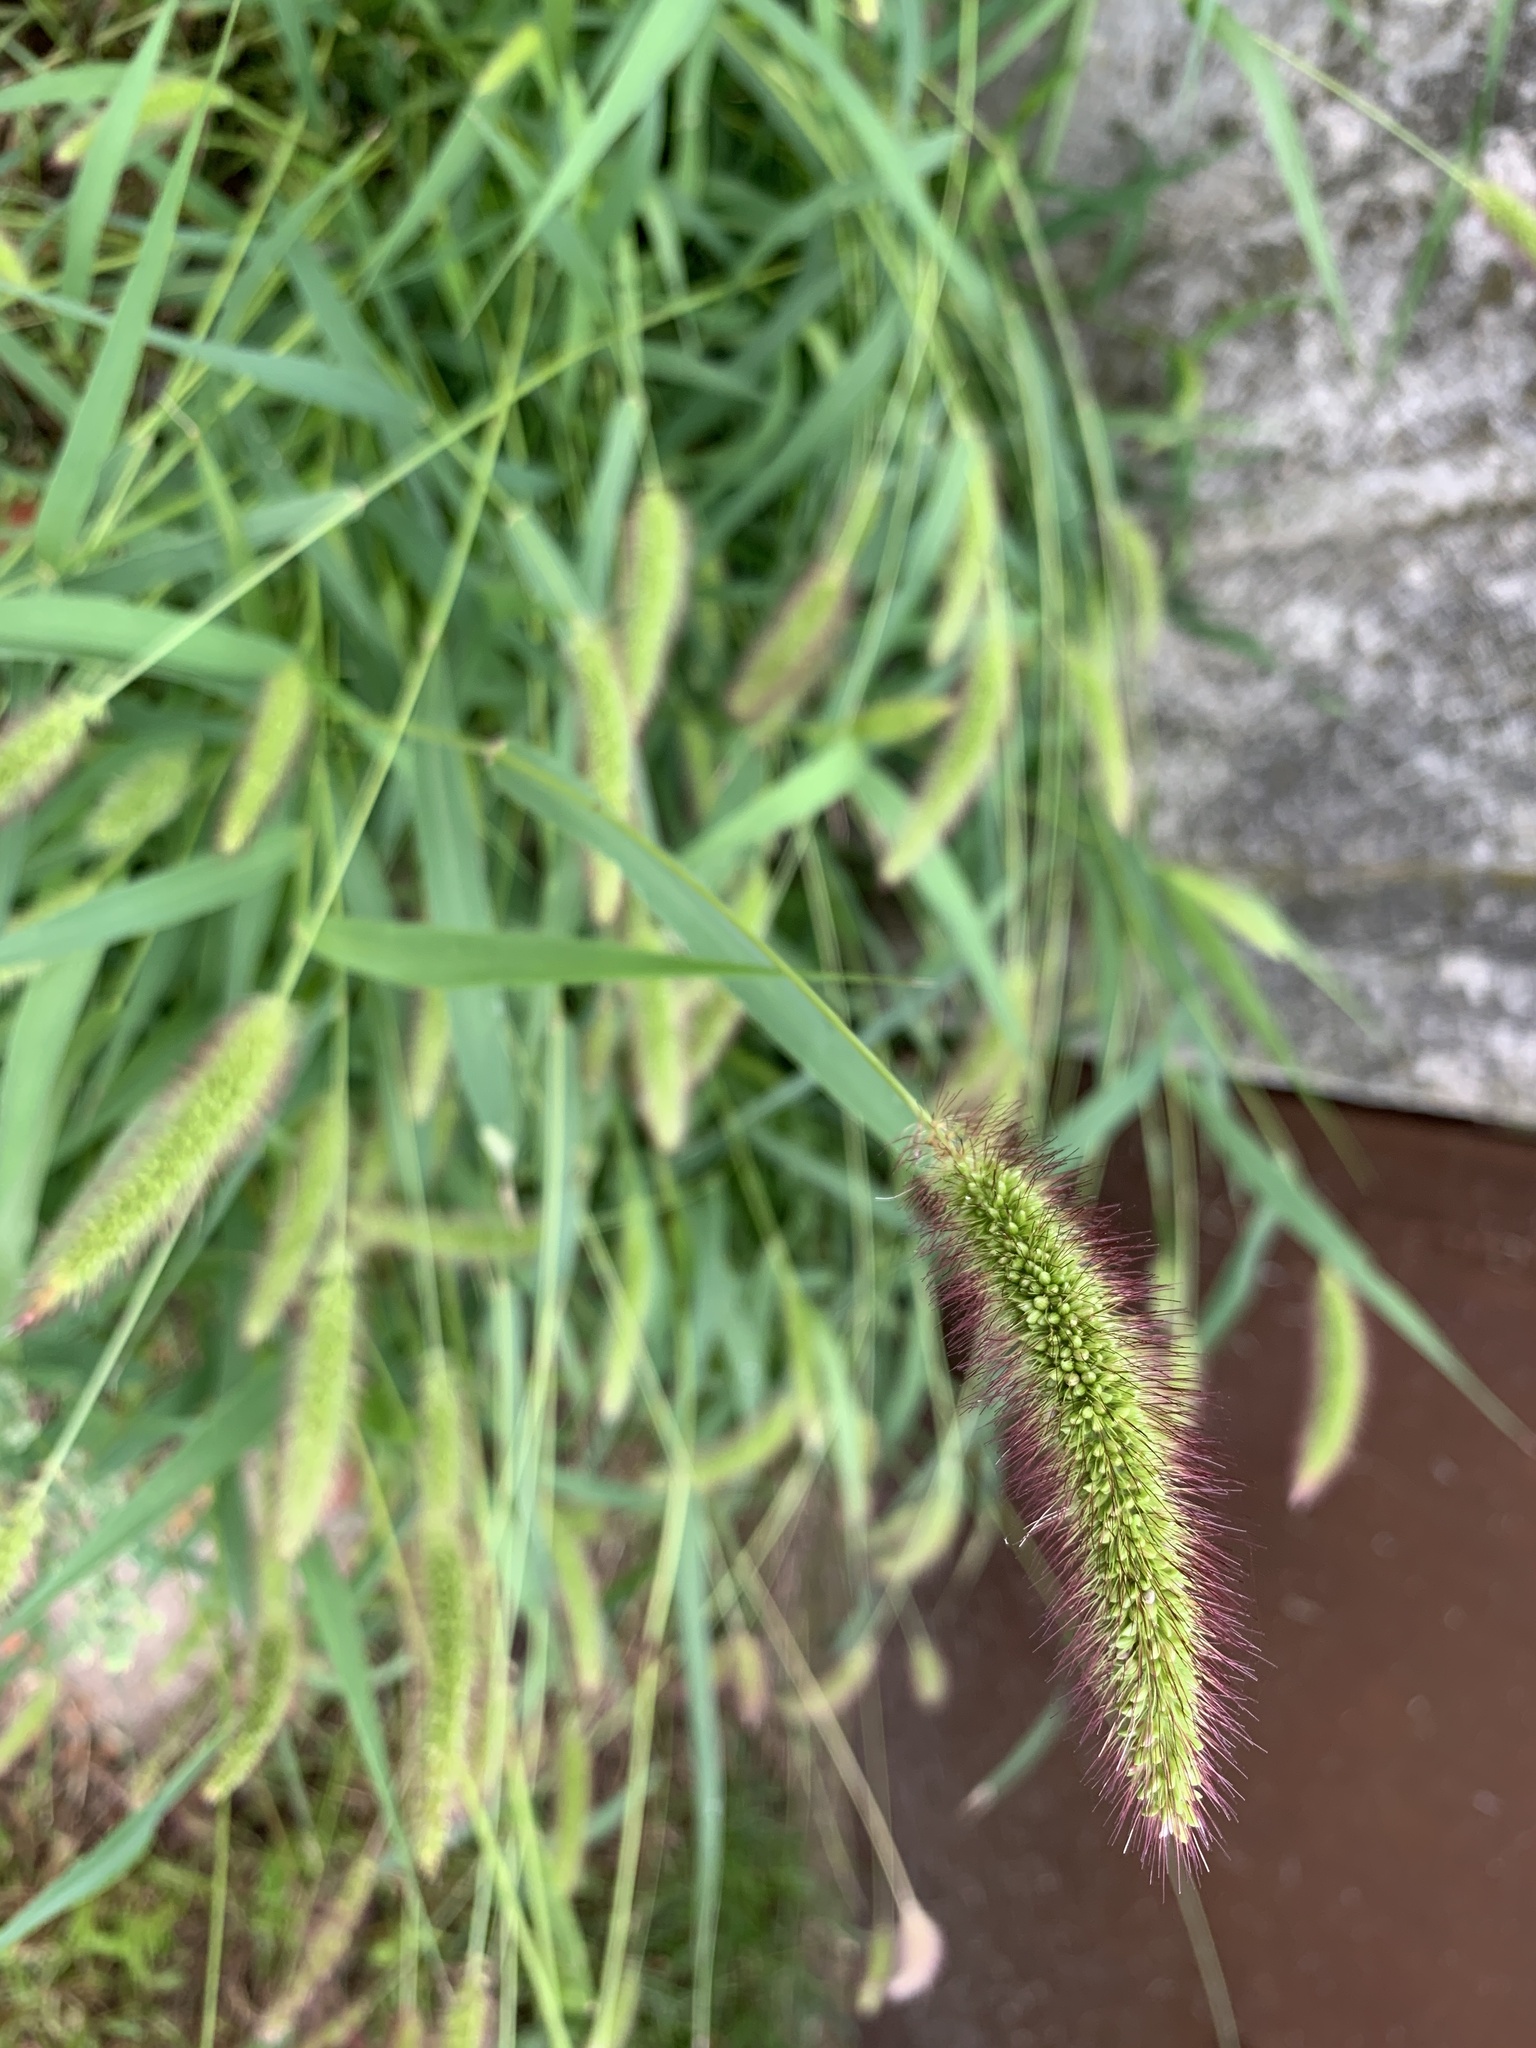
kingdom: Plantae
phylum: Tracheophyta
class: Liliopsida
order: Poales
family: Poaceae
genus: Setaria
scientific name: Setaria viridis
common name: Green bristlegrass
